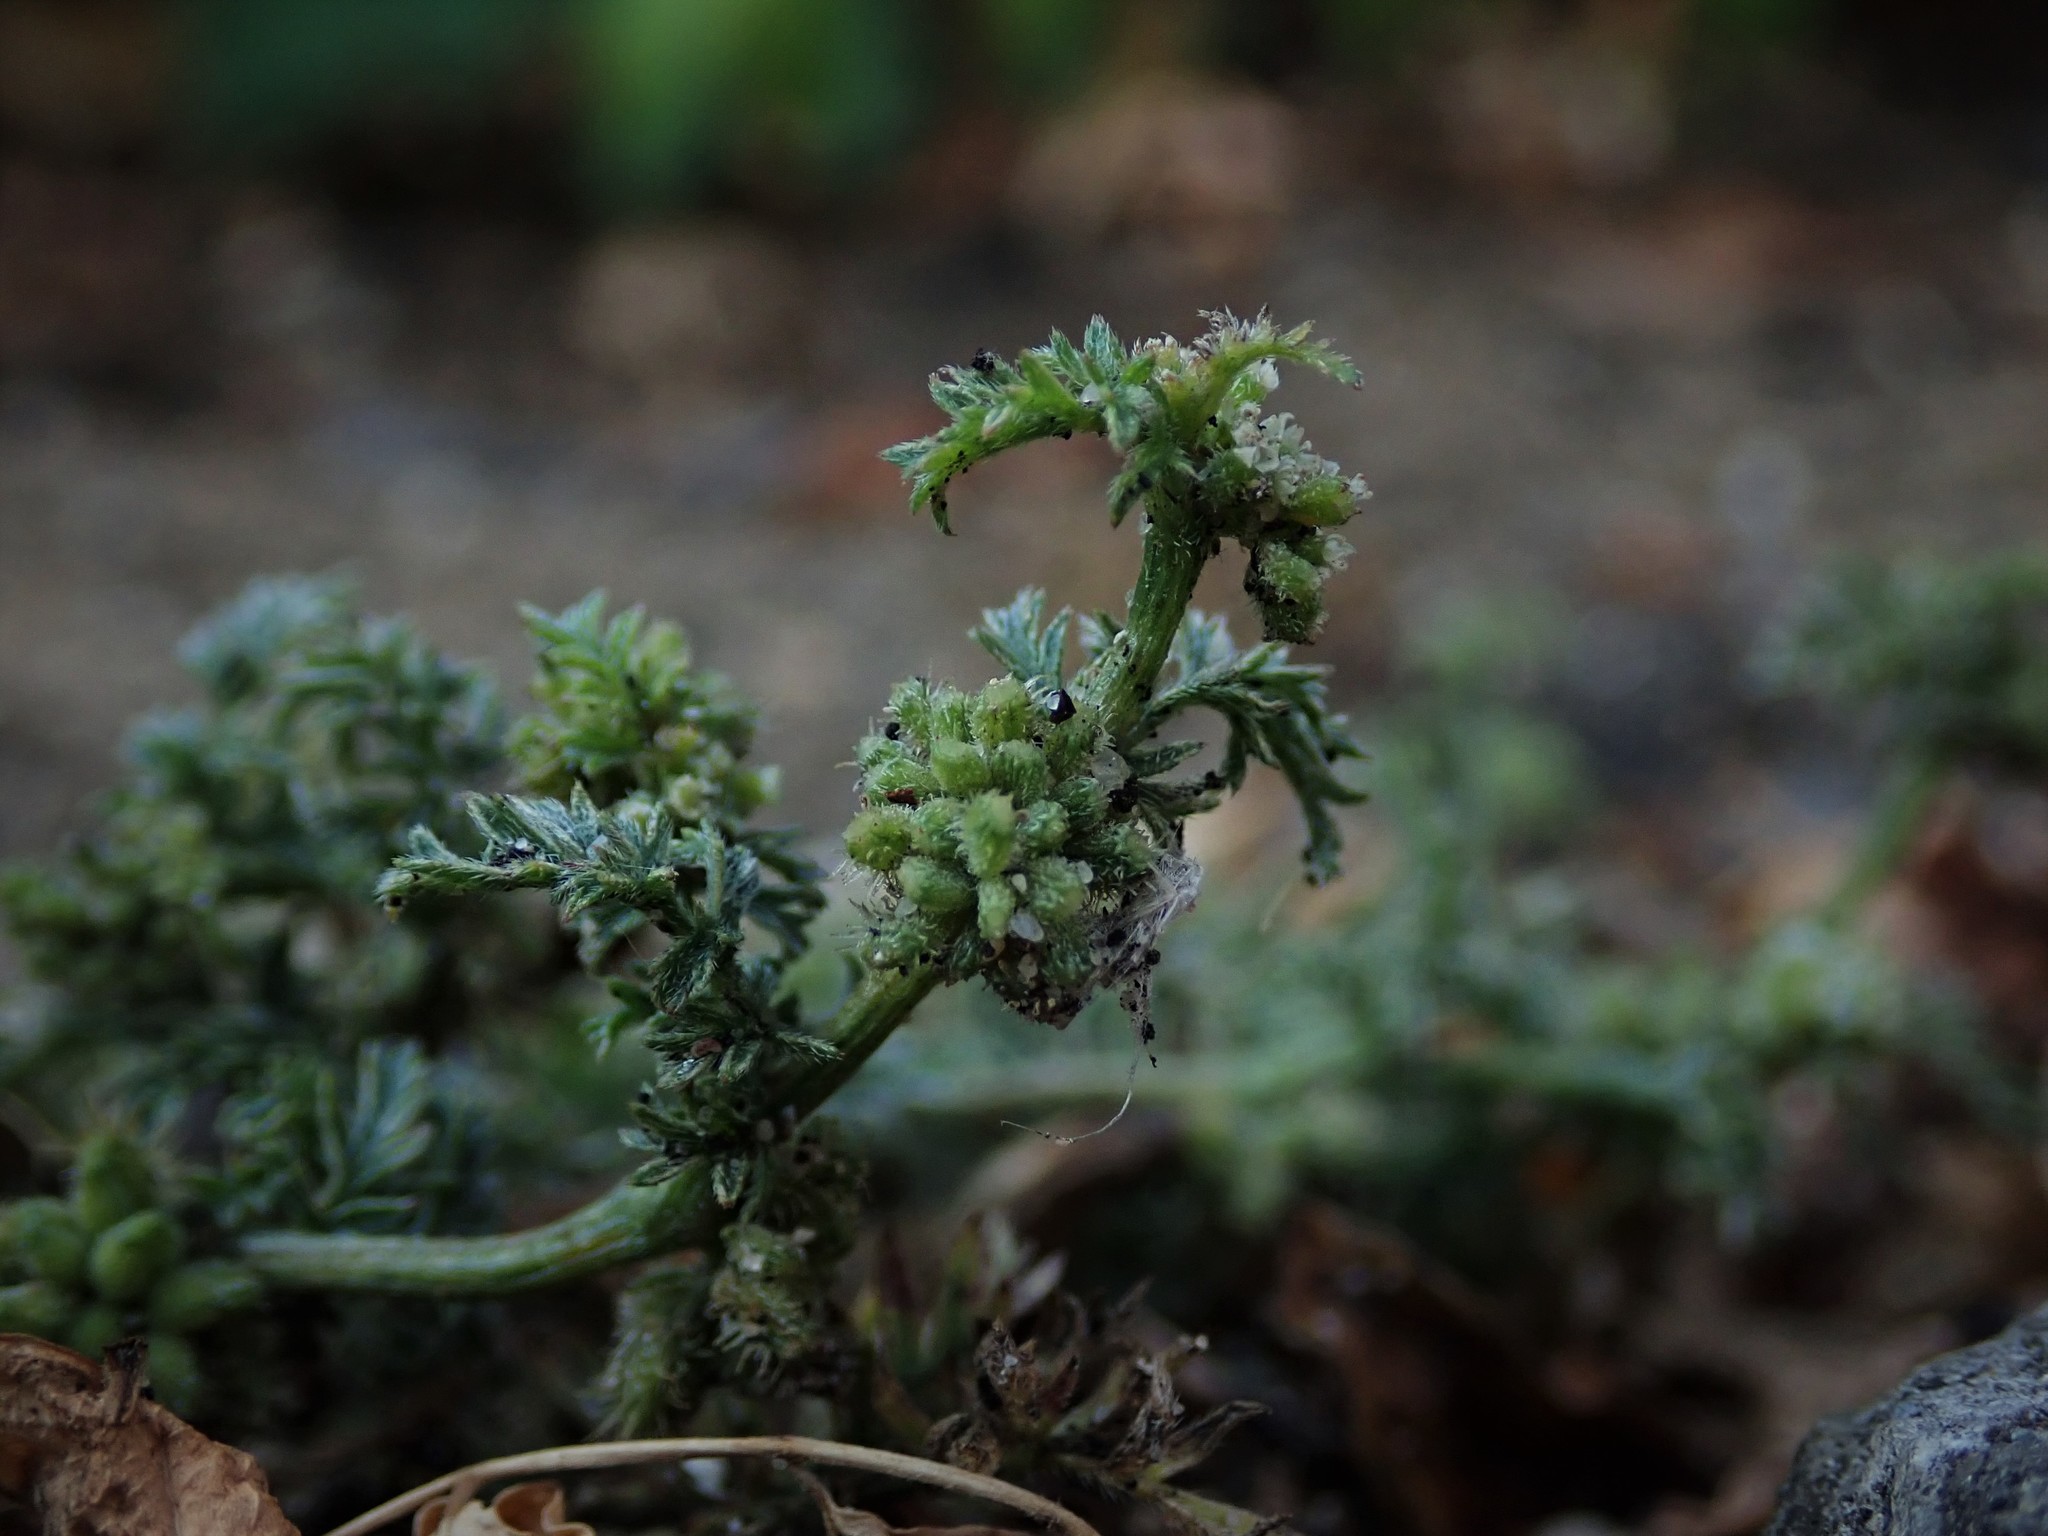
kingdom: Plantae
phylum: Tracheophyta
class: Magnoliopsida
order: Apiales
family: Apiaceae
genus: Torilis
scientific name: Torilis nodosa
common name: Knotted hedge-parsley
